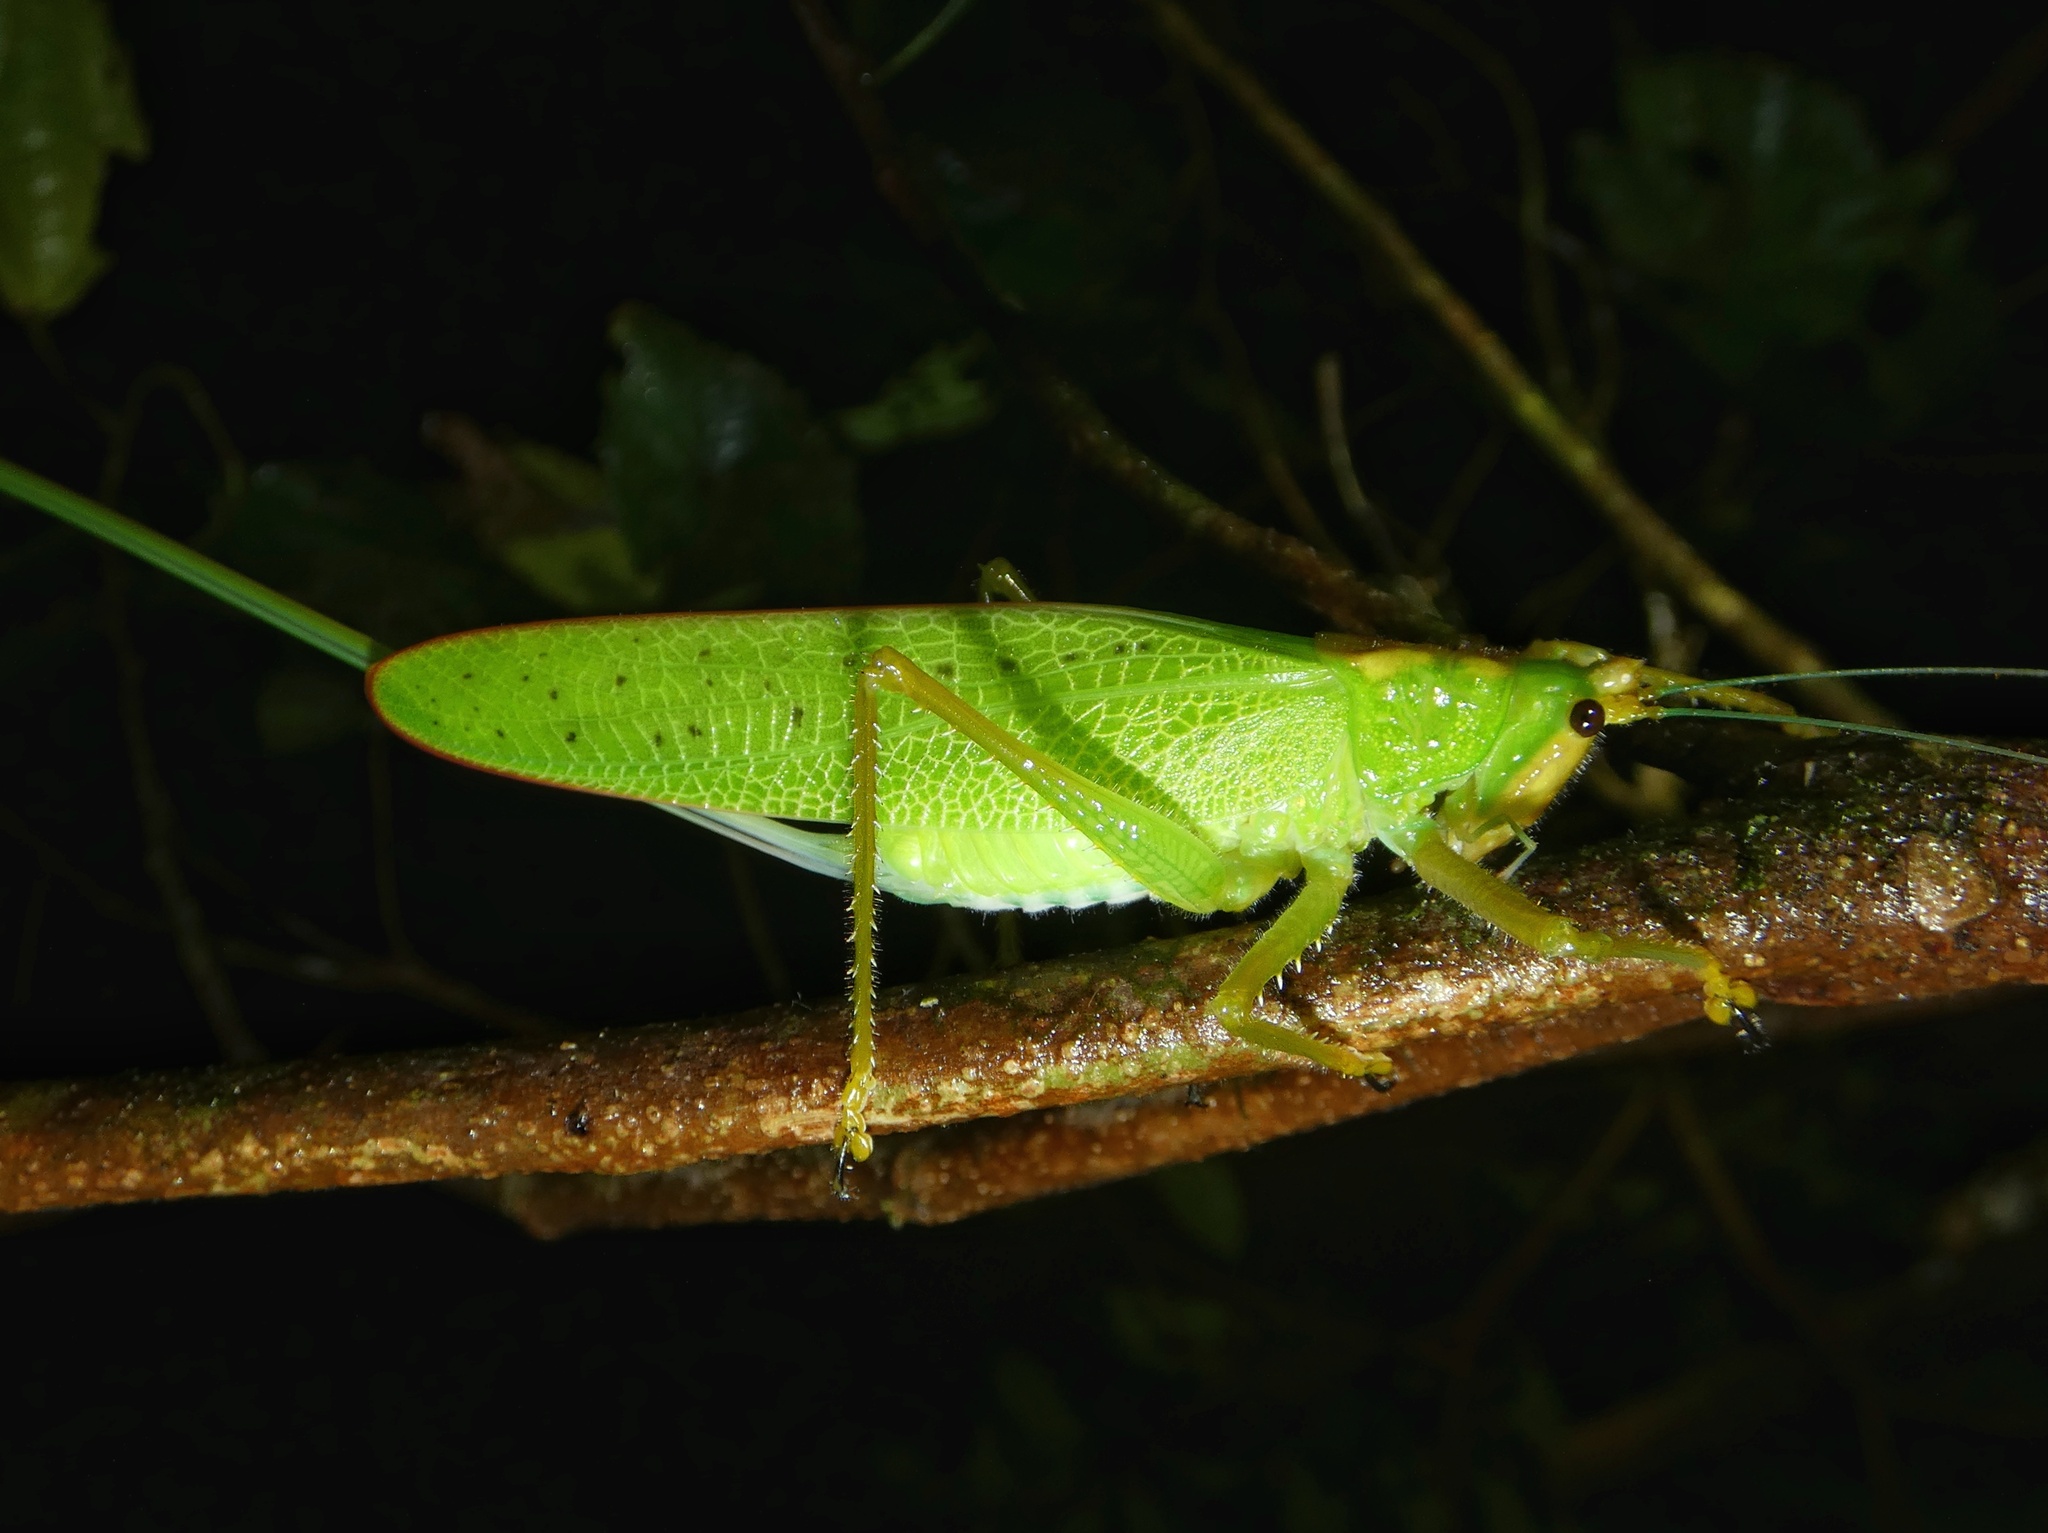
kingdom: Animalia
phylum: Arthropoda
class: Insecta
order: Orthoptera
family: Tettigoniidae
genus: Copiphora
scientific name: Copiphora brevirostris
